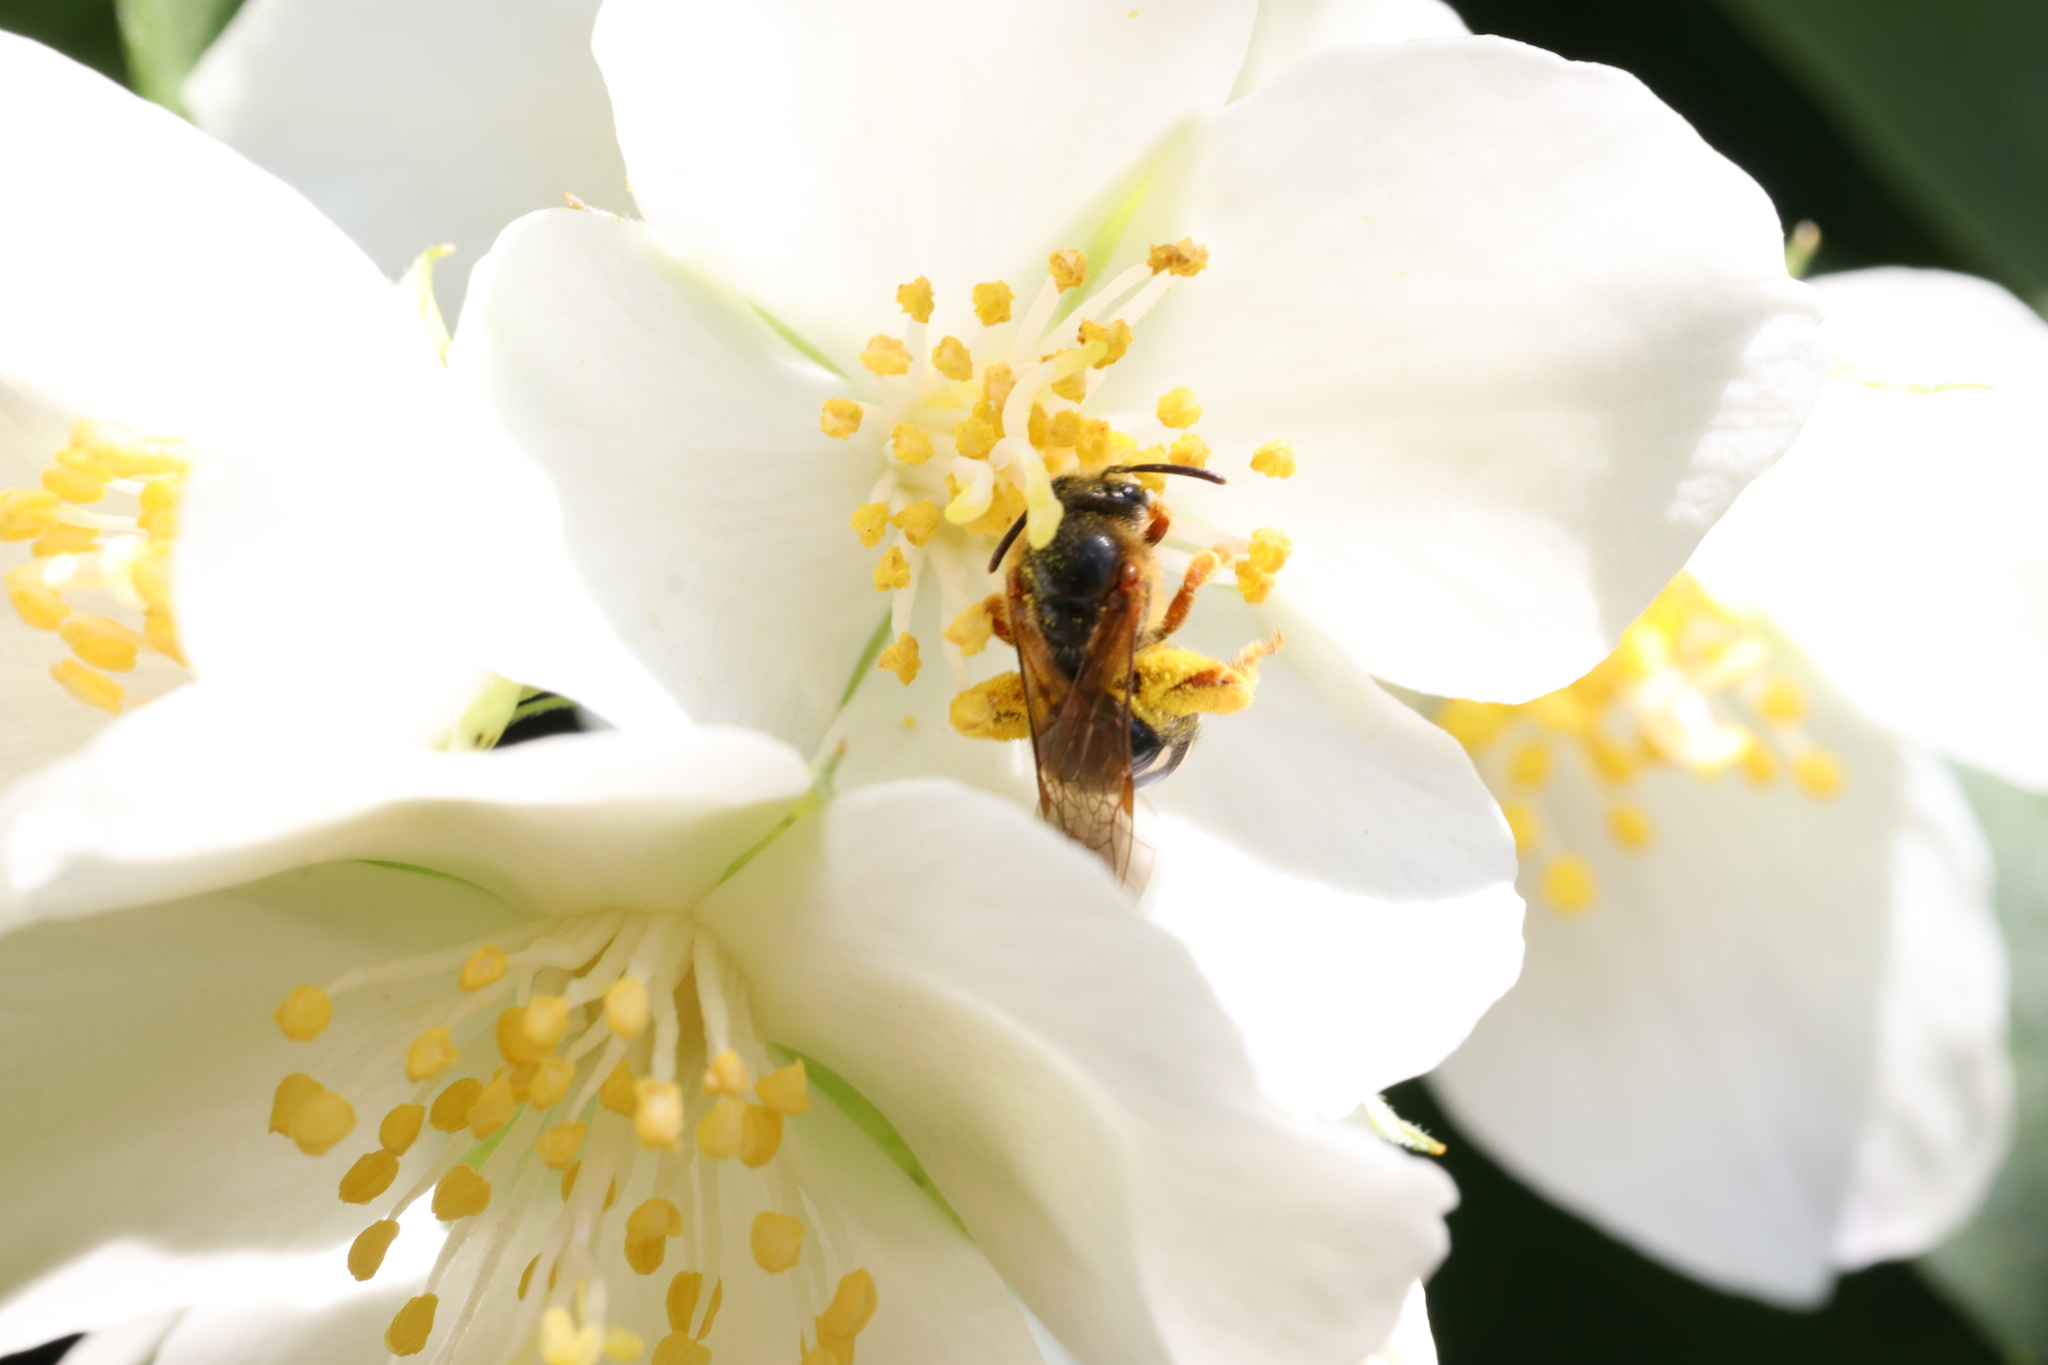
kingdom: Animalia
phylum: Arthropoda
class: Insecta
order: Hymenoptera
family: Halictidae
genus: Ruizantheda
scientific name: Ruizantheda proxima
